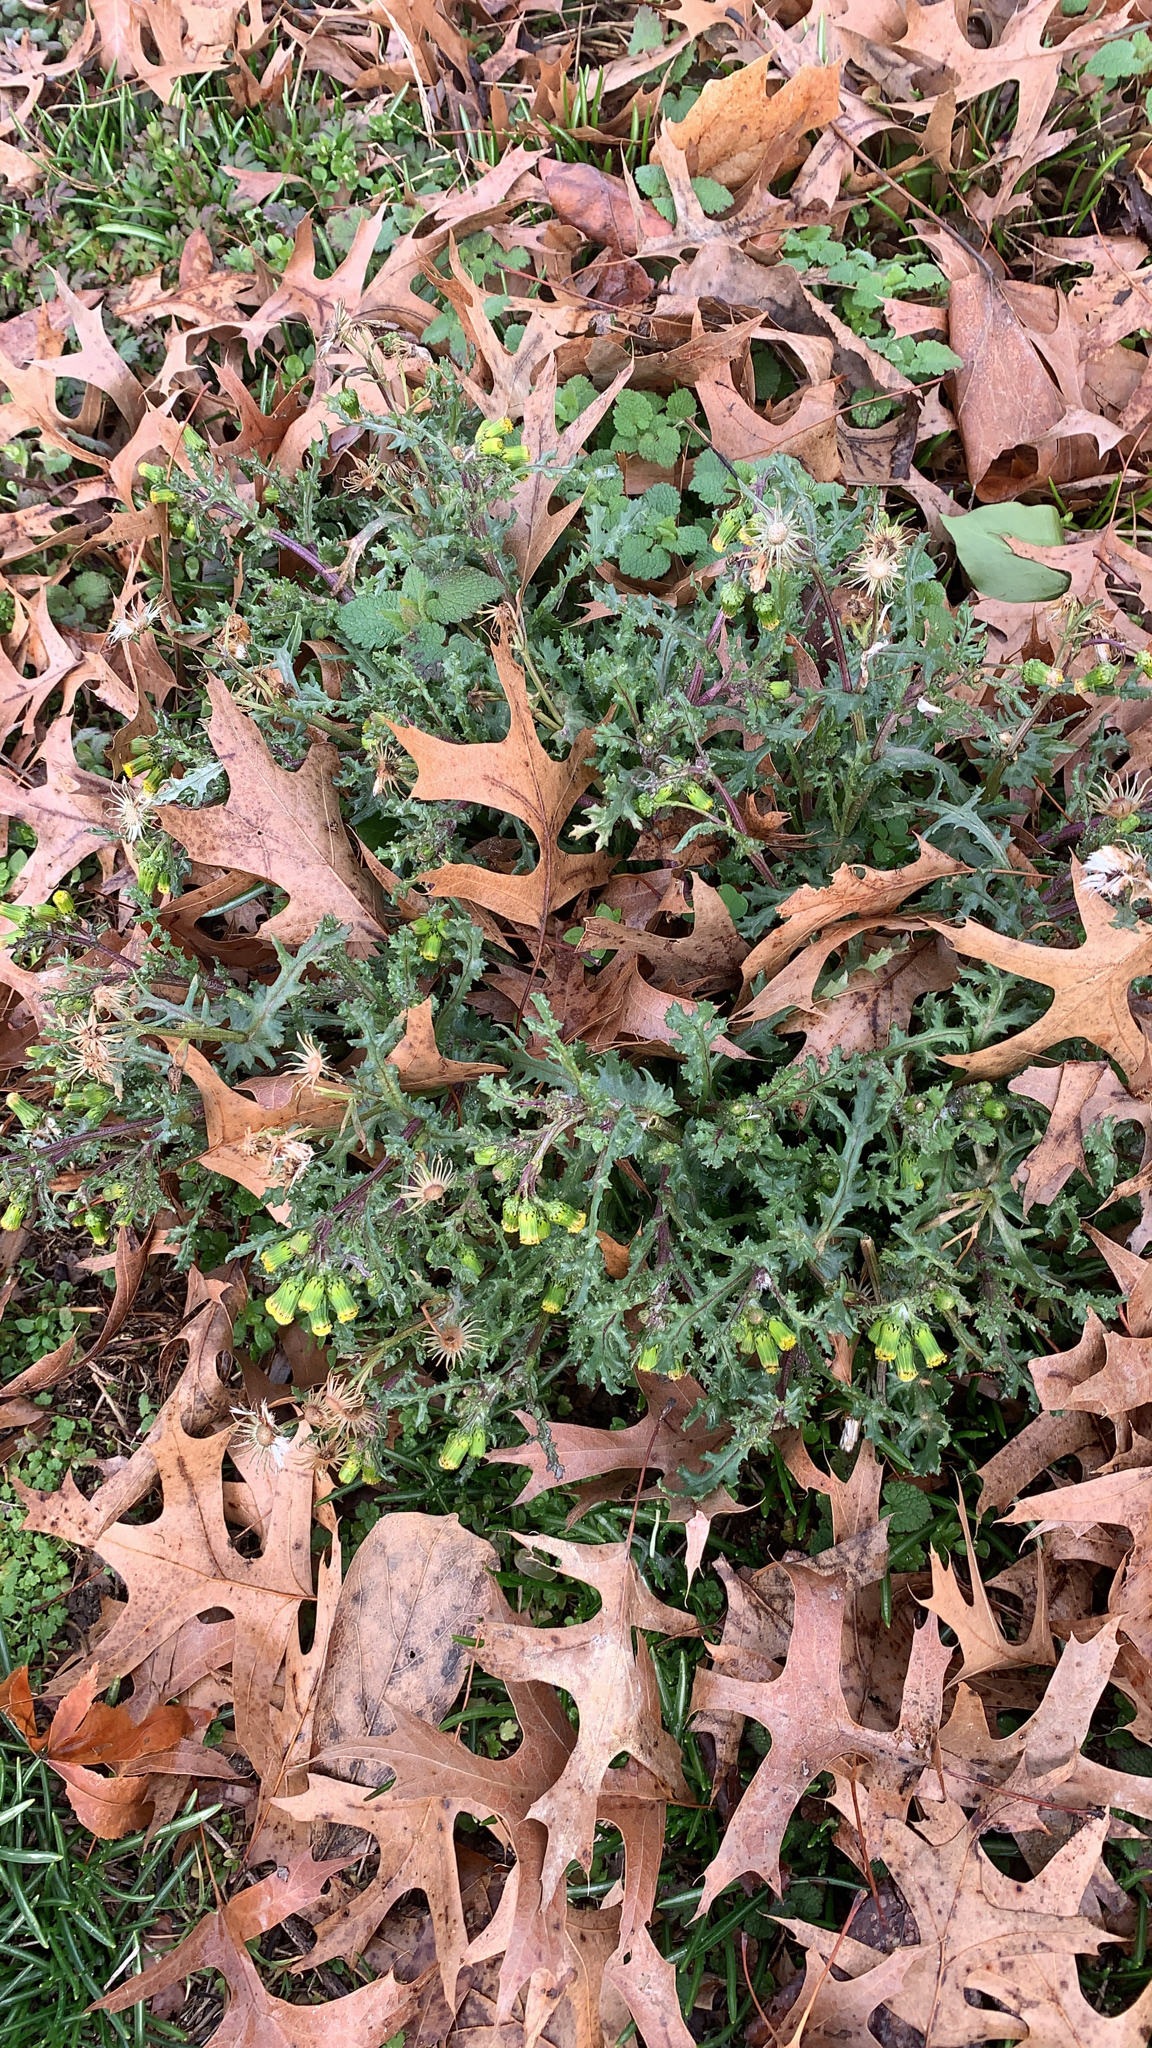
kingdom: Plantae
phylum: Tracheophyta
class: Magnoliopsida
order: Asterales
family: Asteraceae
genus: Senecio
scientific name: Senecio vulgaris
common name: Old-man-in-the-spring
